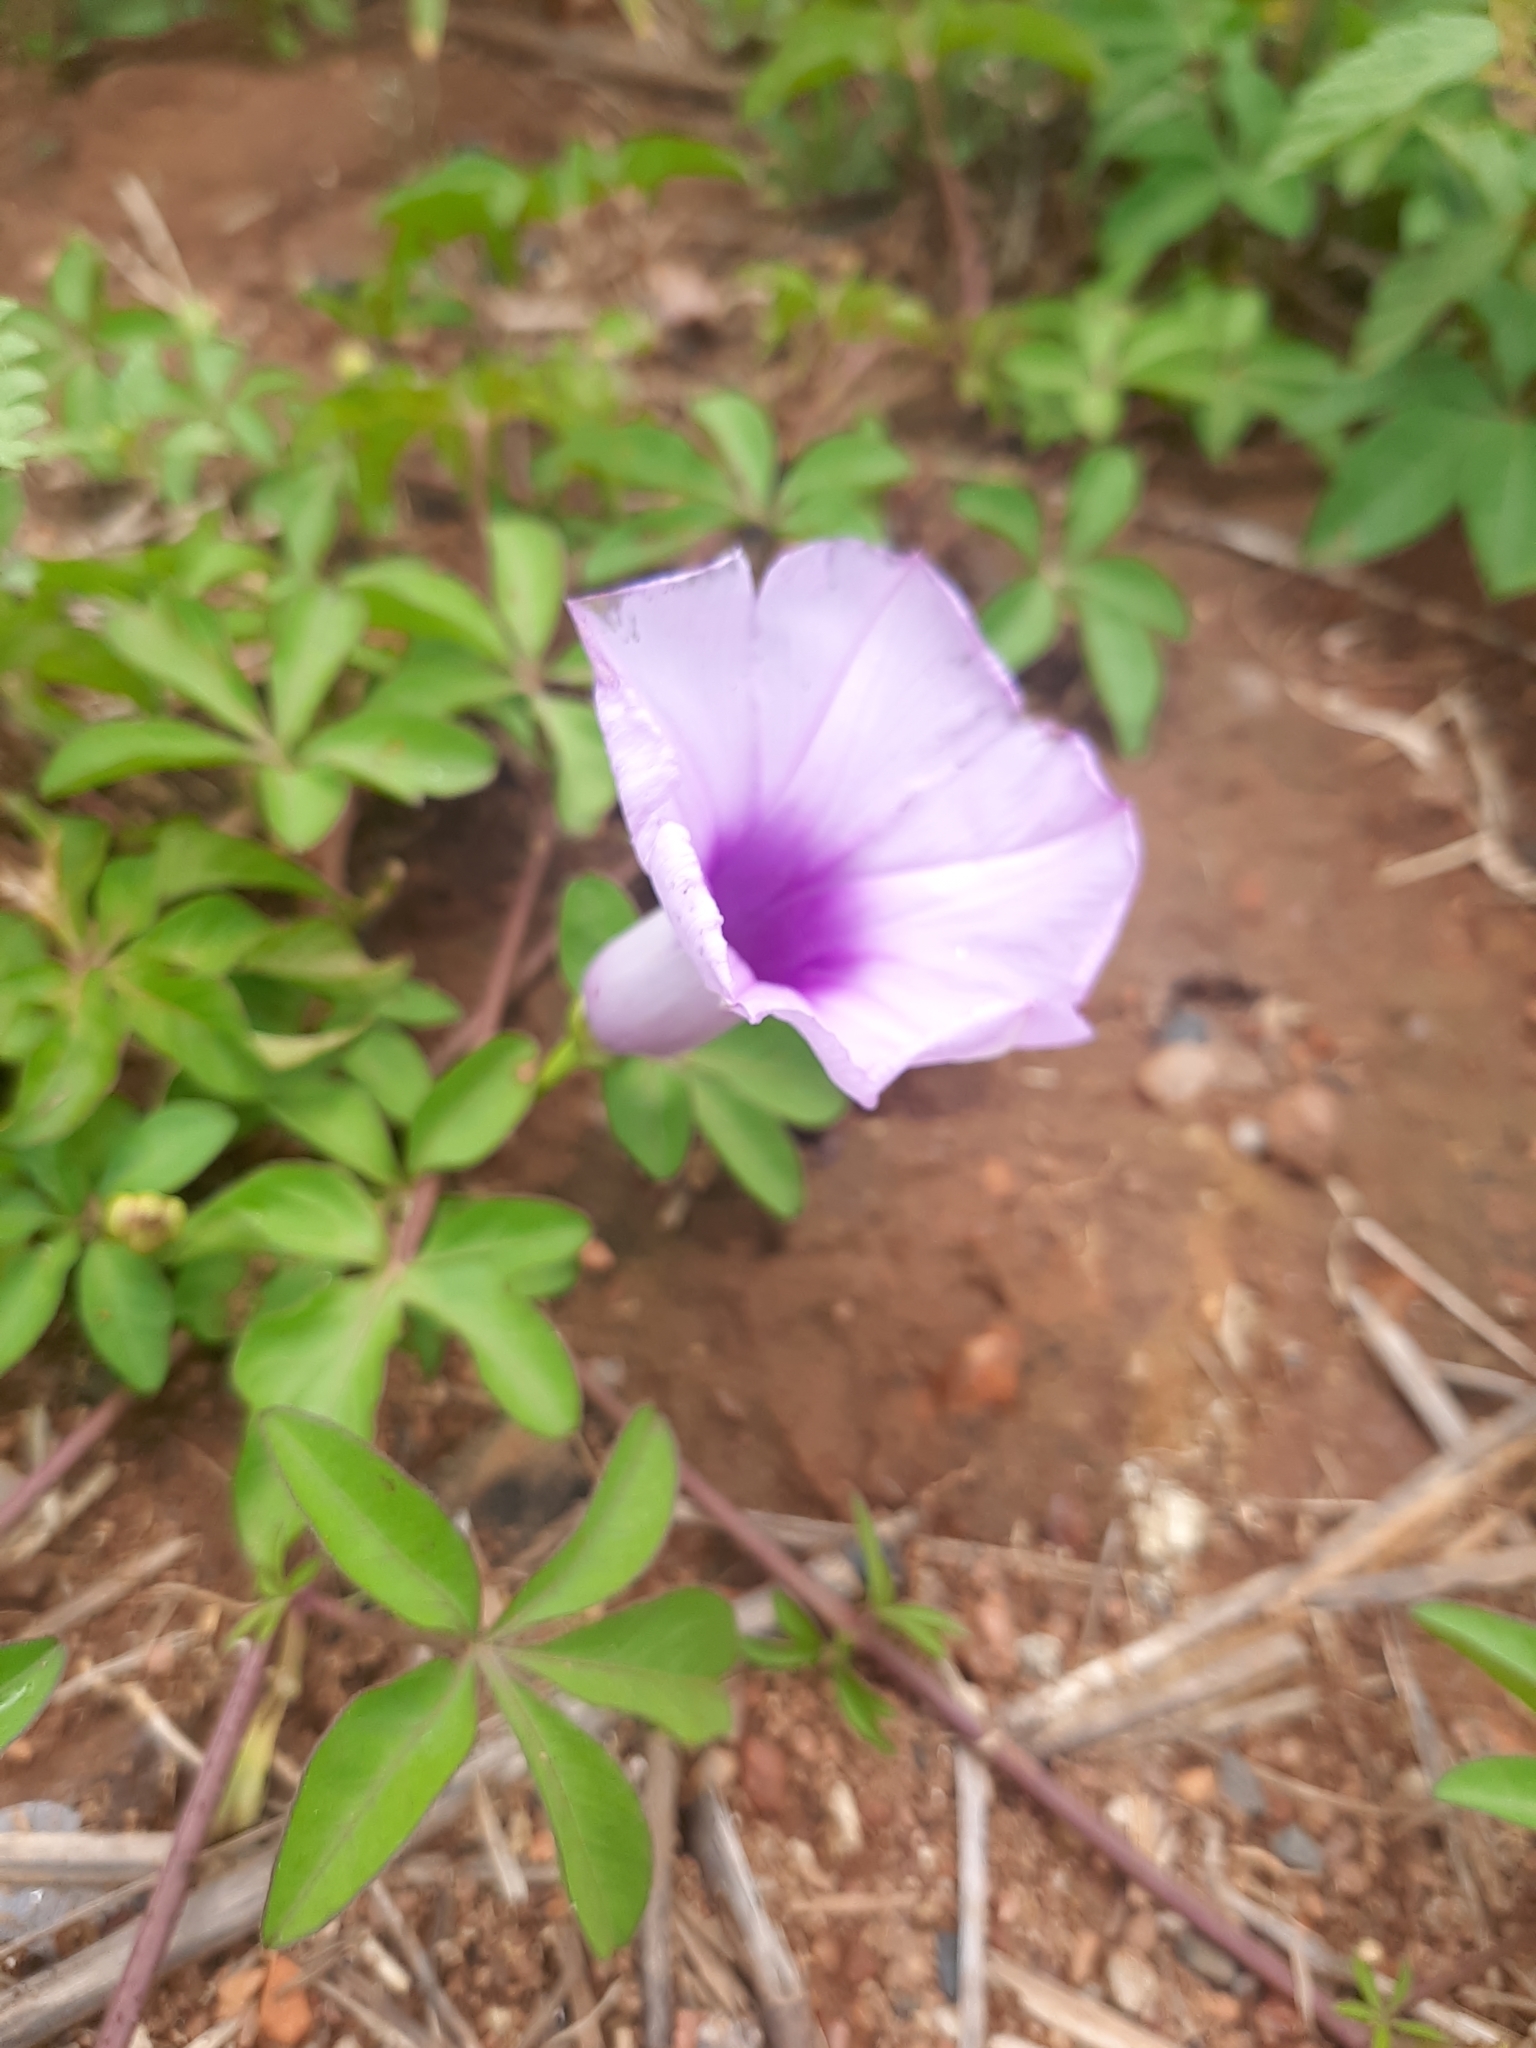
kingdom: Plantae
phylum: Tracheophyta
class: Magnoliopsida
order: Solanales
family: Convolvulaceae
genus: Ipomoea
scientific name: Ipomoea cairica
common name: Mile a minute vine
